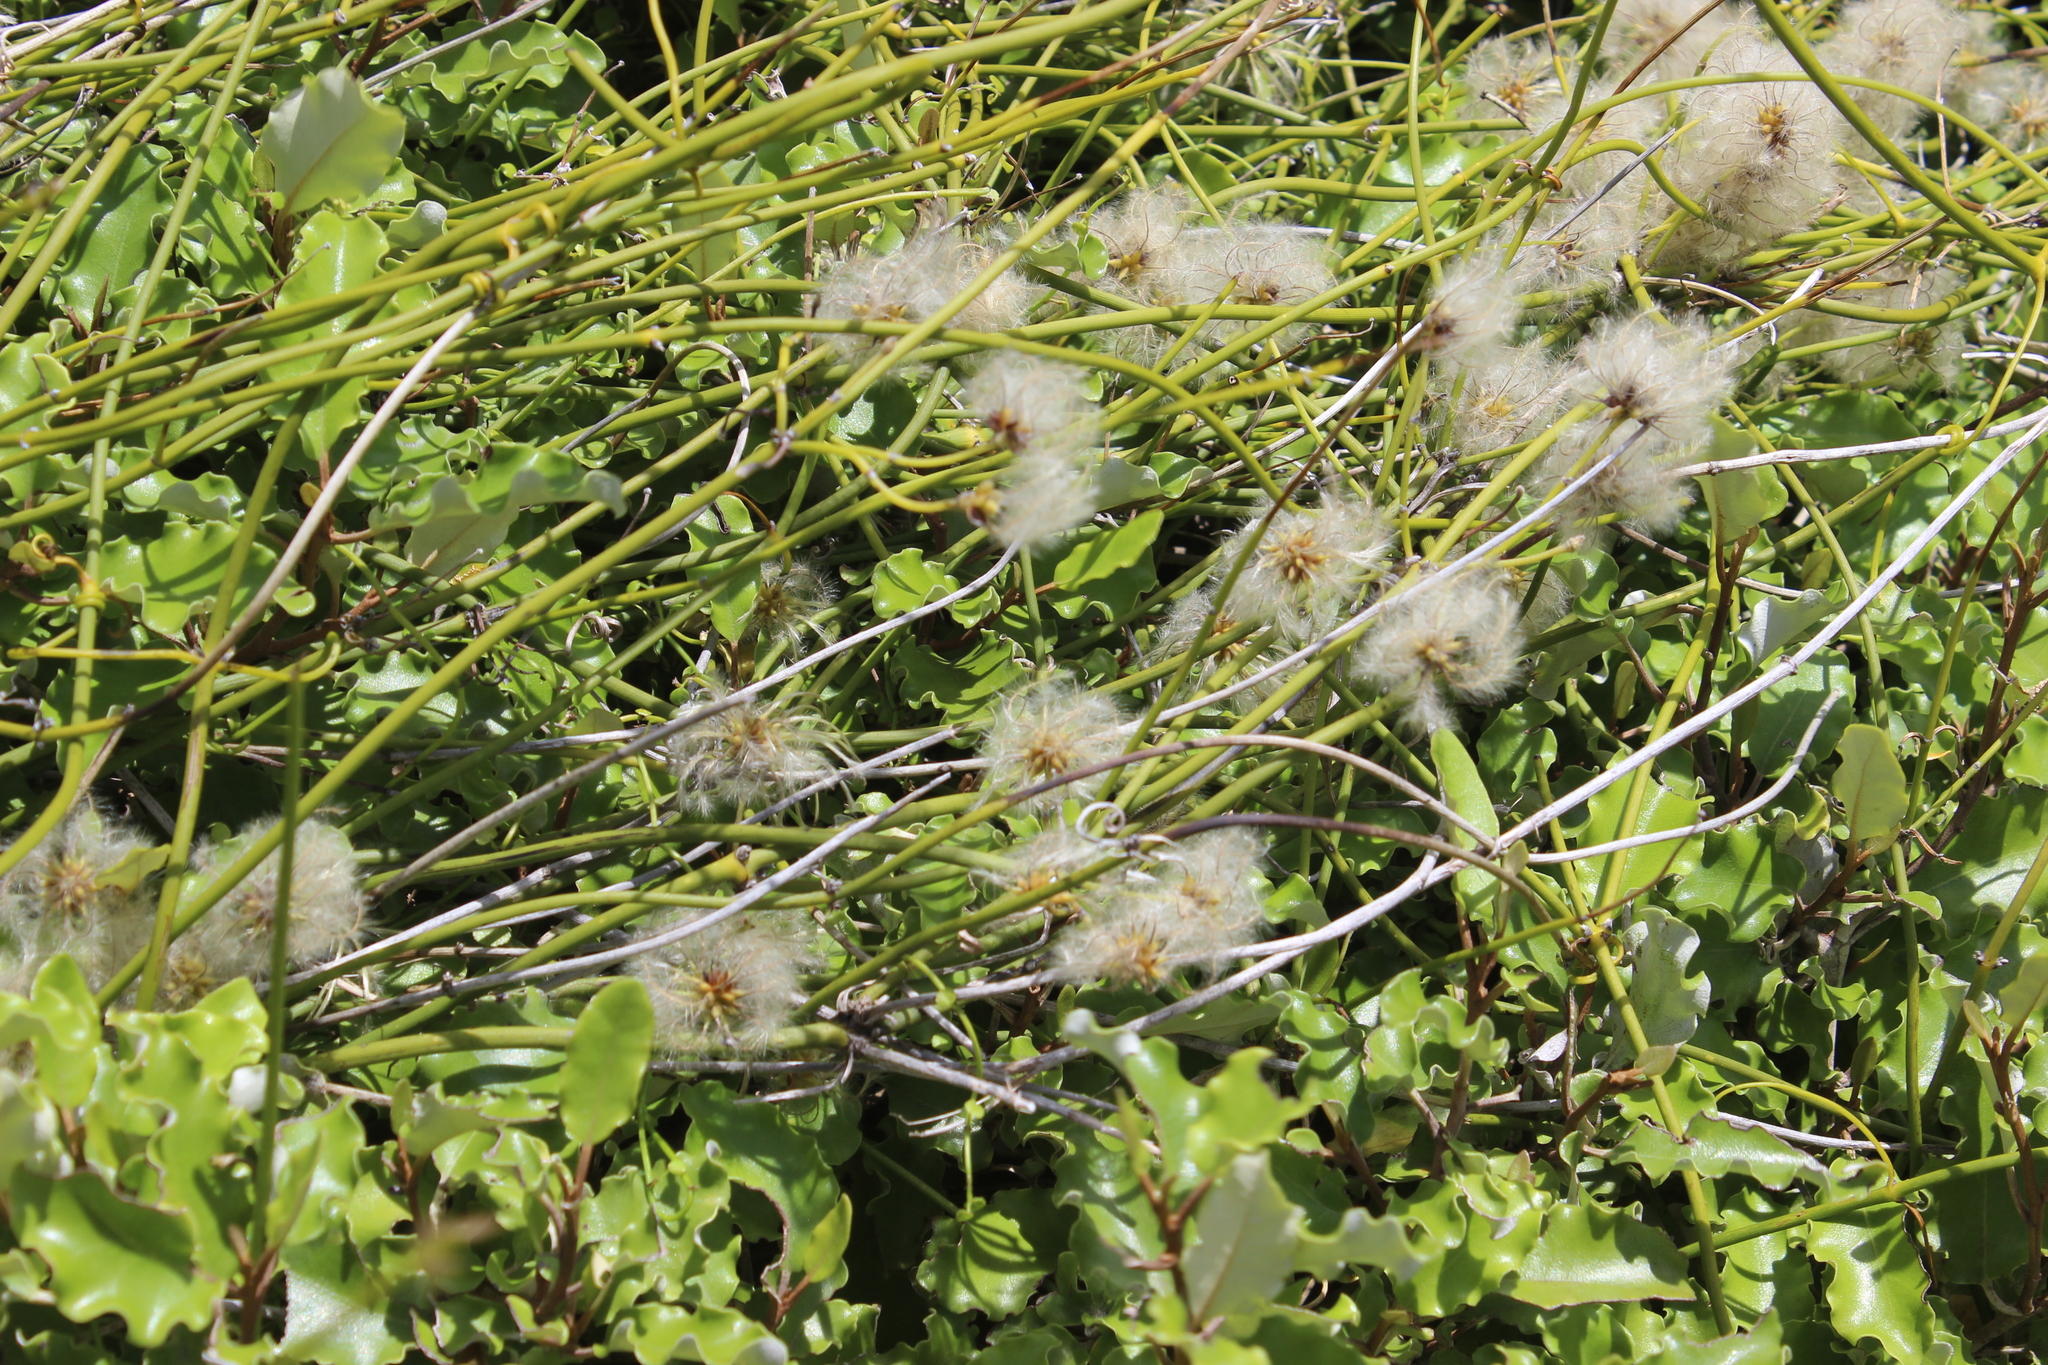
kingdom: Plantae
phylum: Tracheophyta
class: Magnoliopsida
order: Ranunculales
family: Ranunculaceae
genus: Clematis
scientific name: Clematis afoliata
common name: Rush-stem clematis
